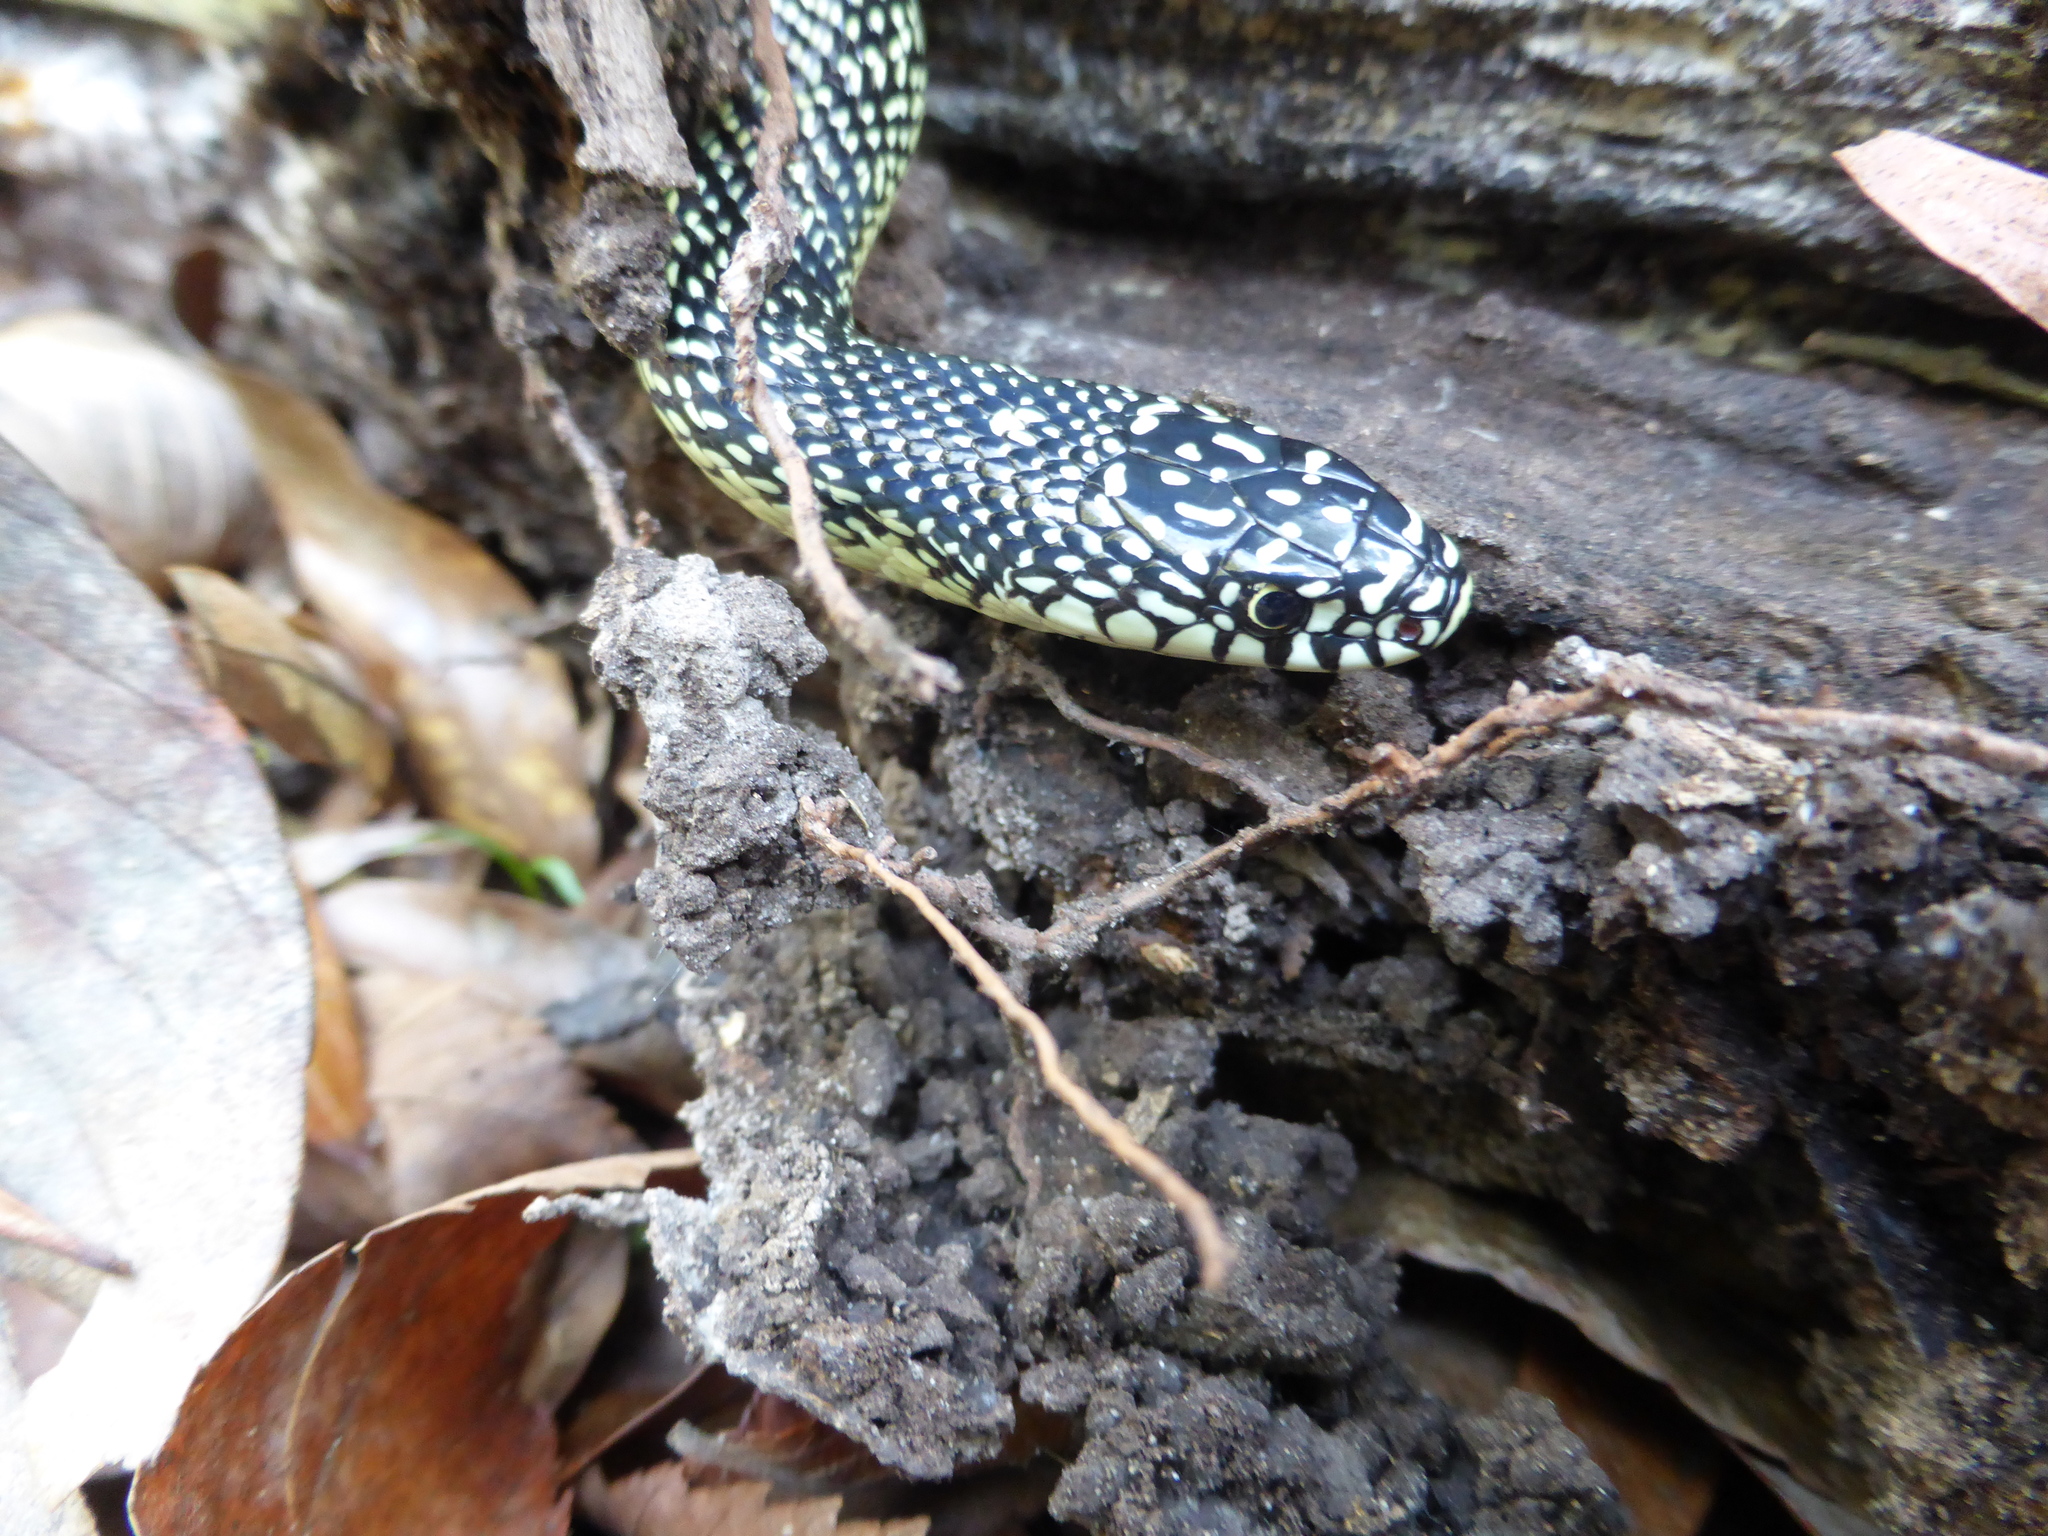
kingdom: Animalia
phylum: Chordata
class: Squamata
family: Colubridae
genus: Lampropeltis
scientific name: Lampropeltis holbrooki
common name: Speckled kingsnake
